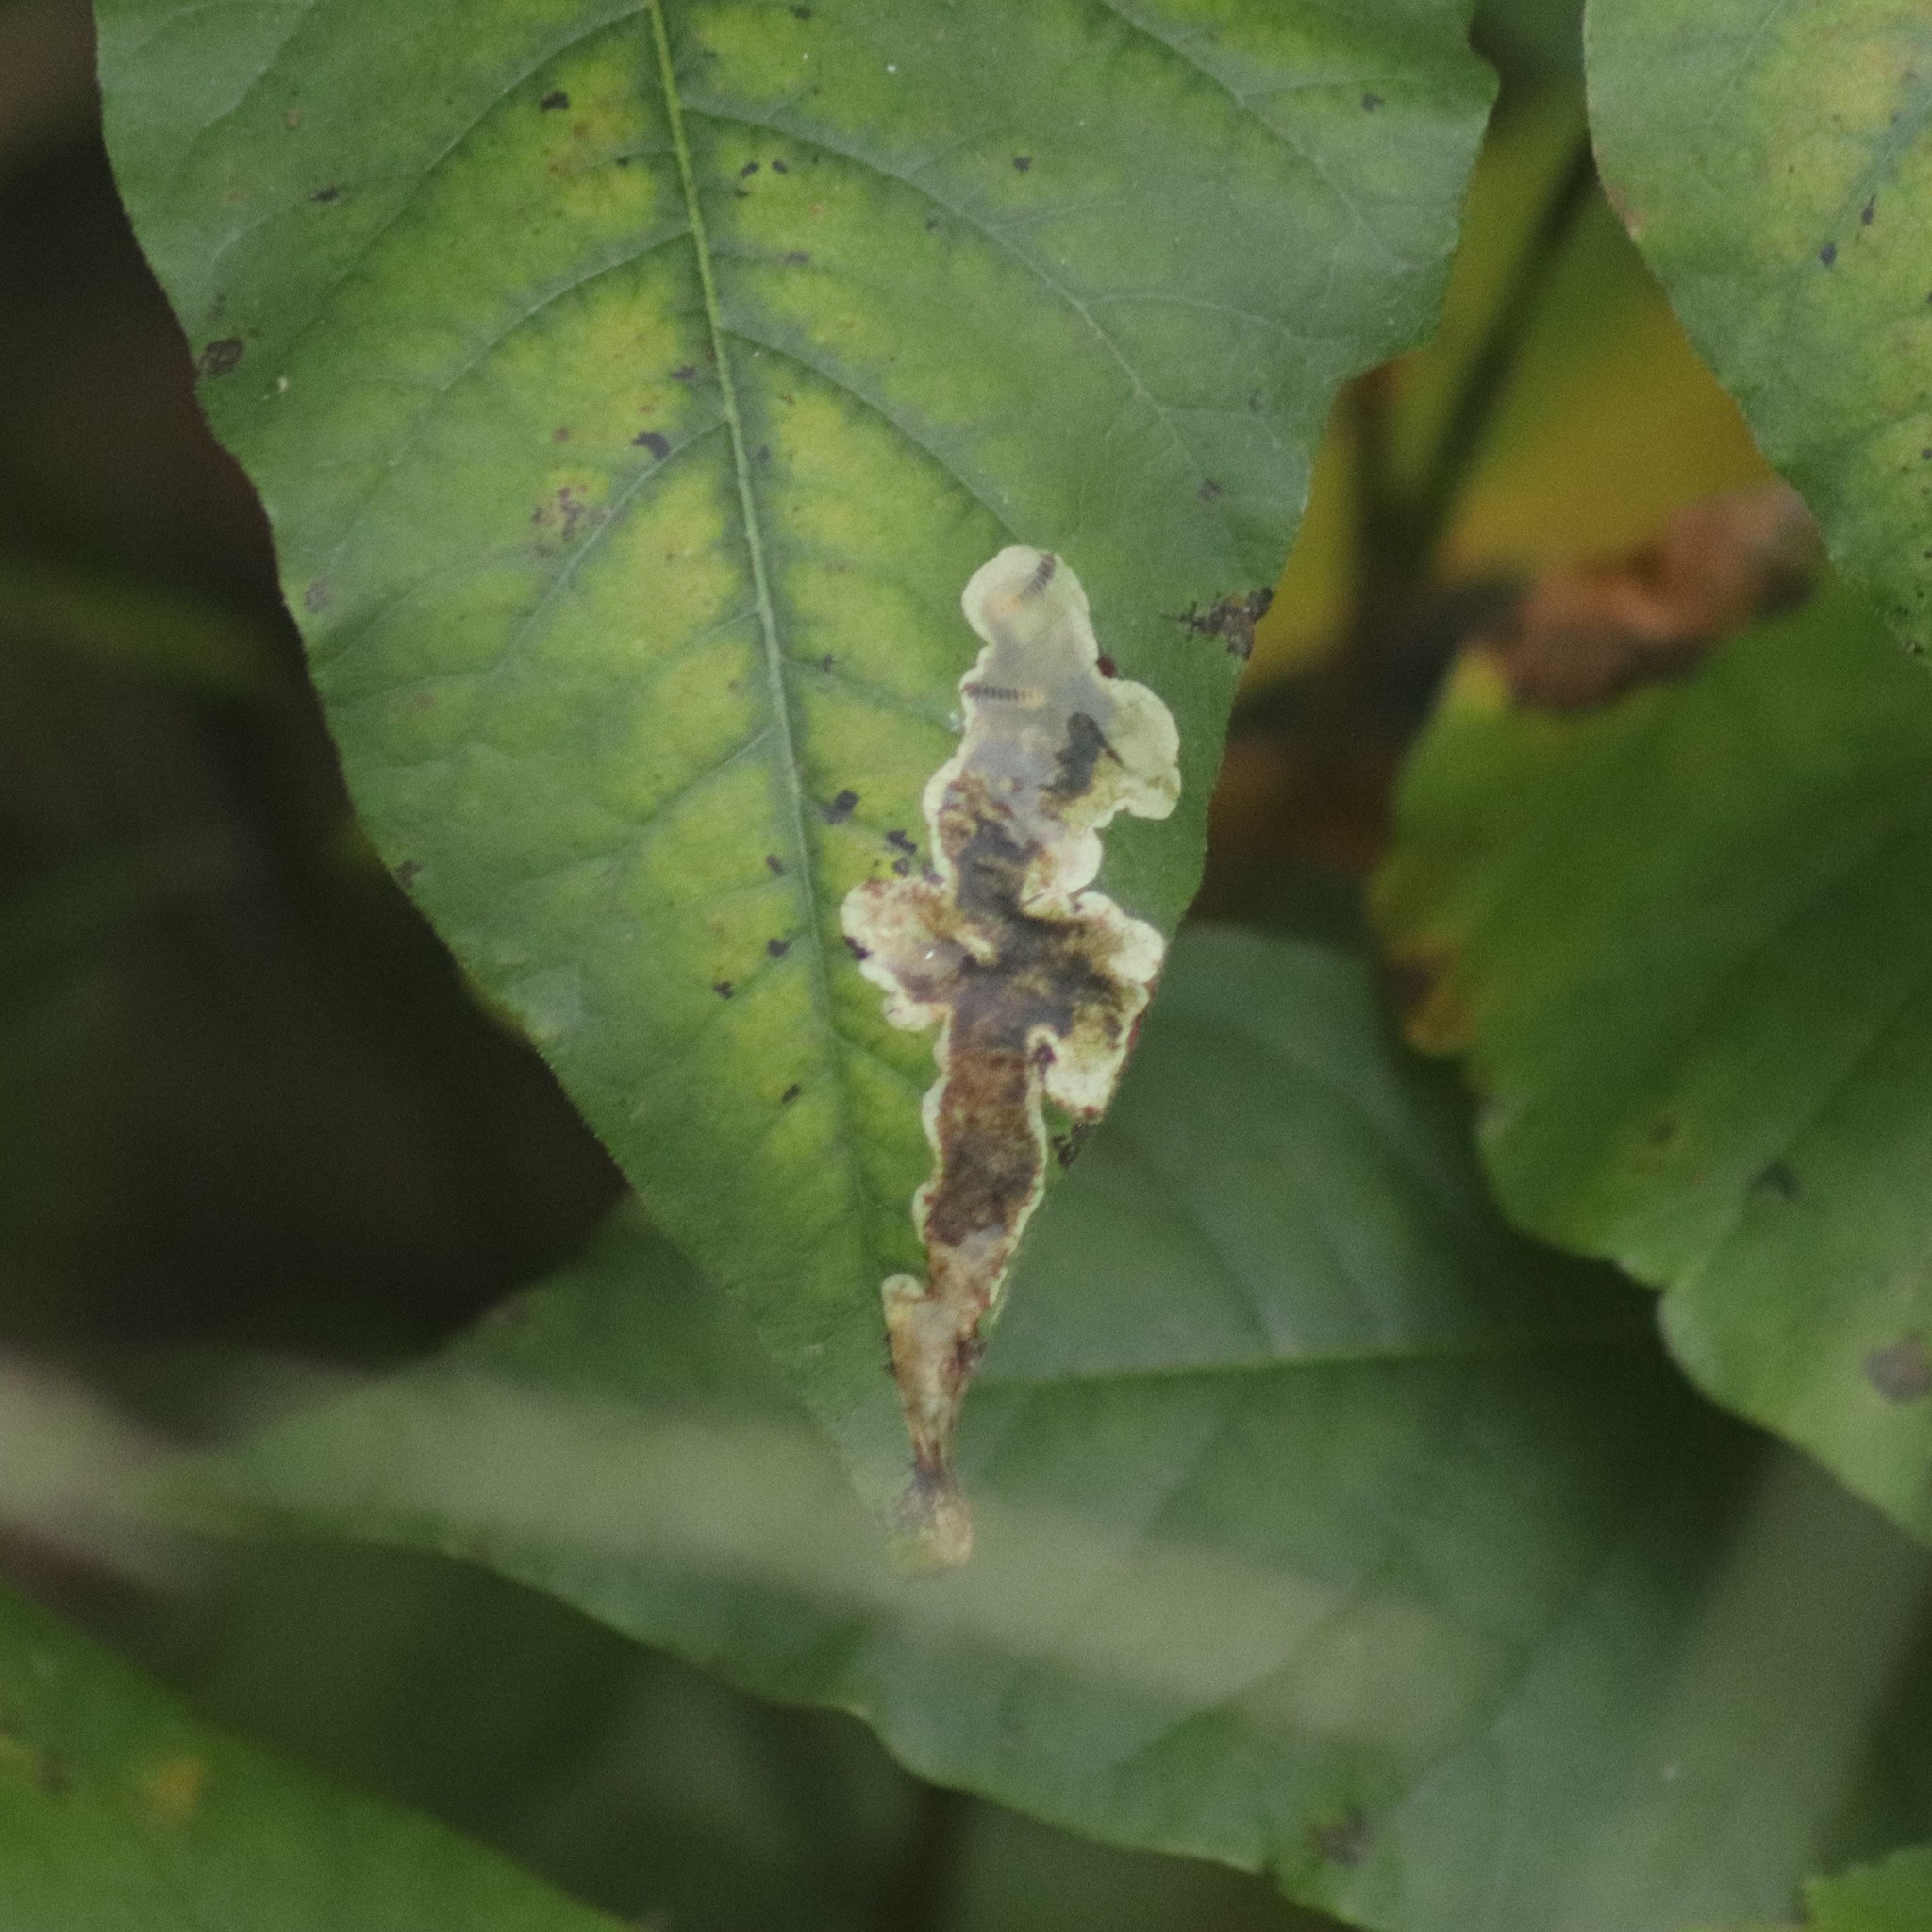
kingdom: Animalia
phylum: Arthropoda
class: Insecta
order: Lepidoptera
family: Gracillariidae
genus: Cameraria
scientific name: Cameraria guttifinitella
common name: Poison ivy leaf-miner moth
